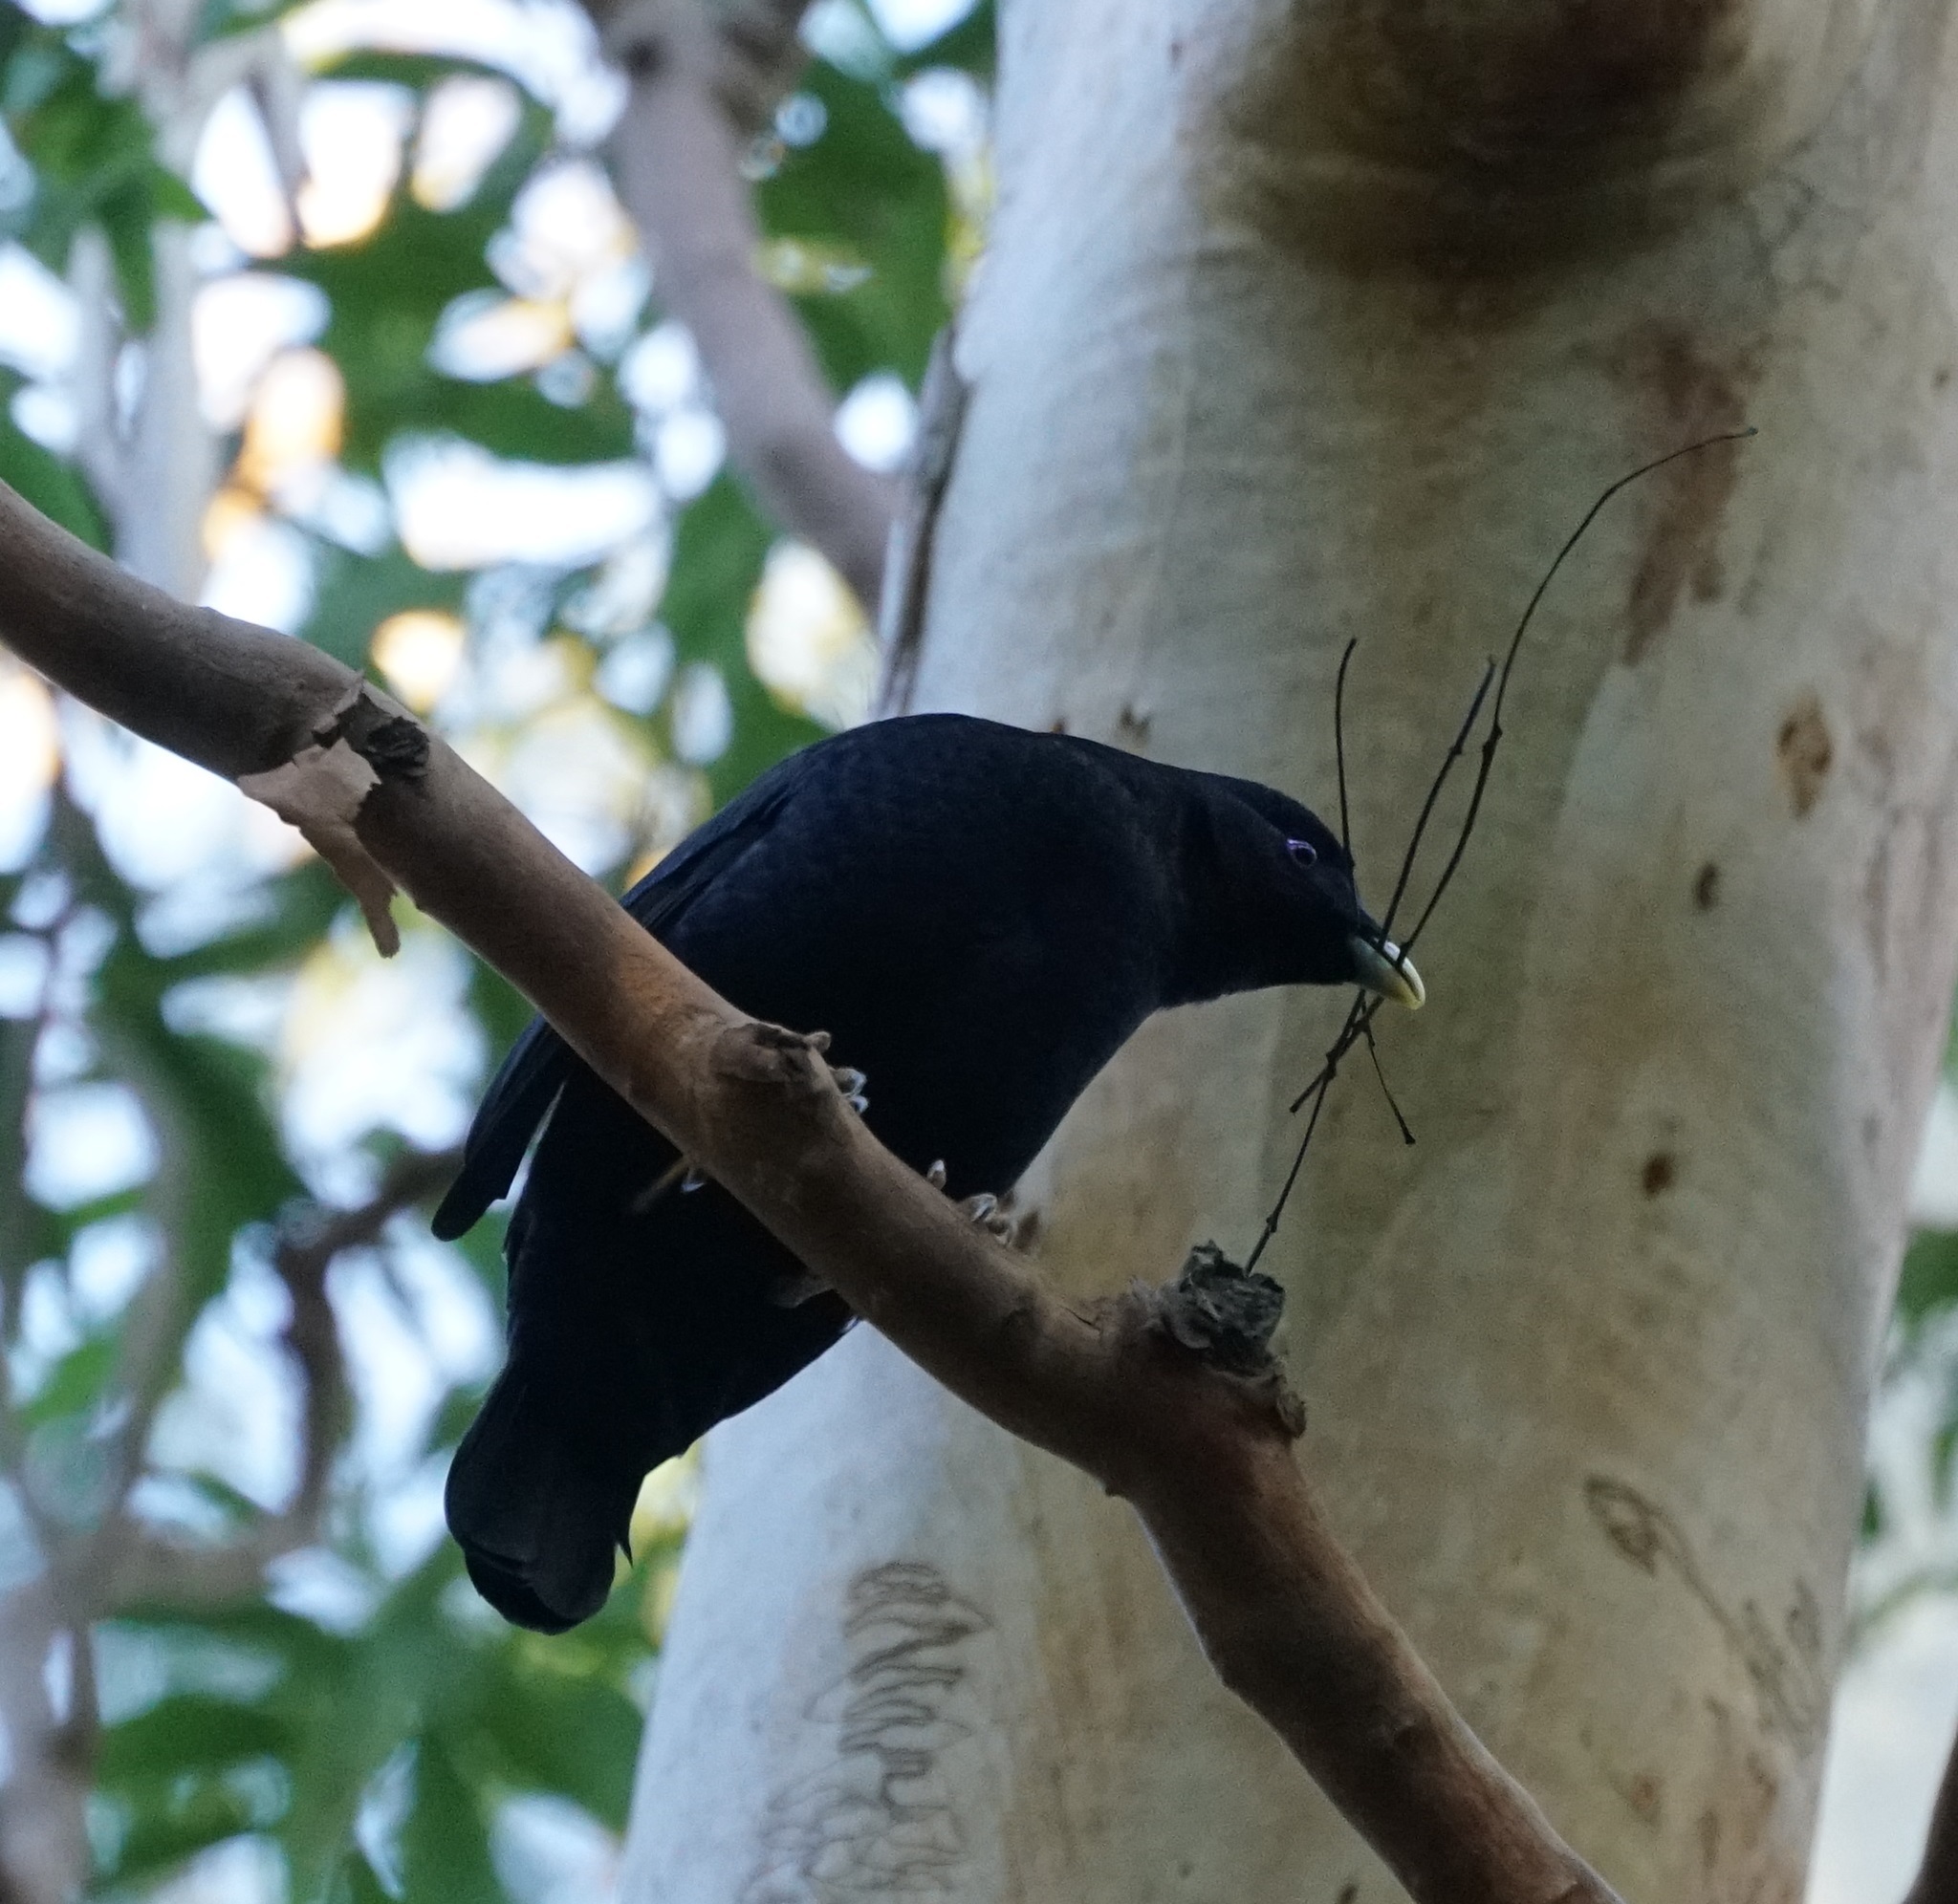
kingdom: Animalia
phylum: Chordata
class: Aves
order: Passeriformes
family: Ptilonorhynchidae
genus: Ptilonorhynchus
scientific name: Ptilonorhynchus violaceus
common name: Satin bowerbird
